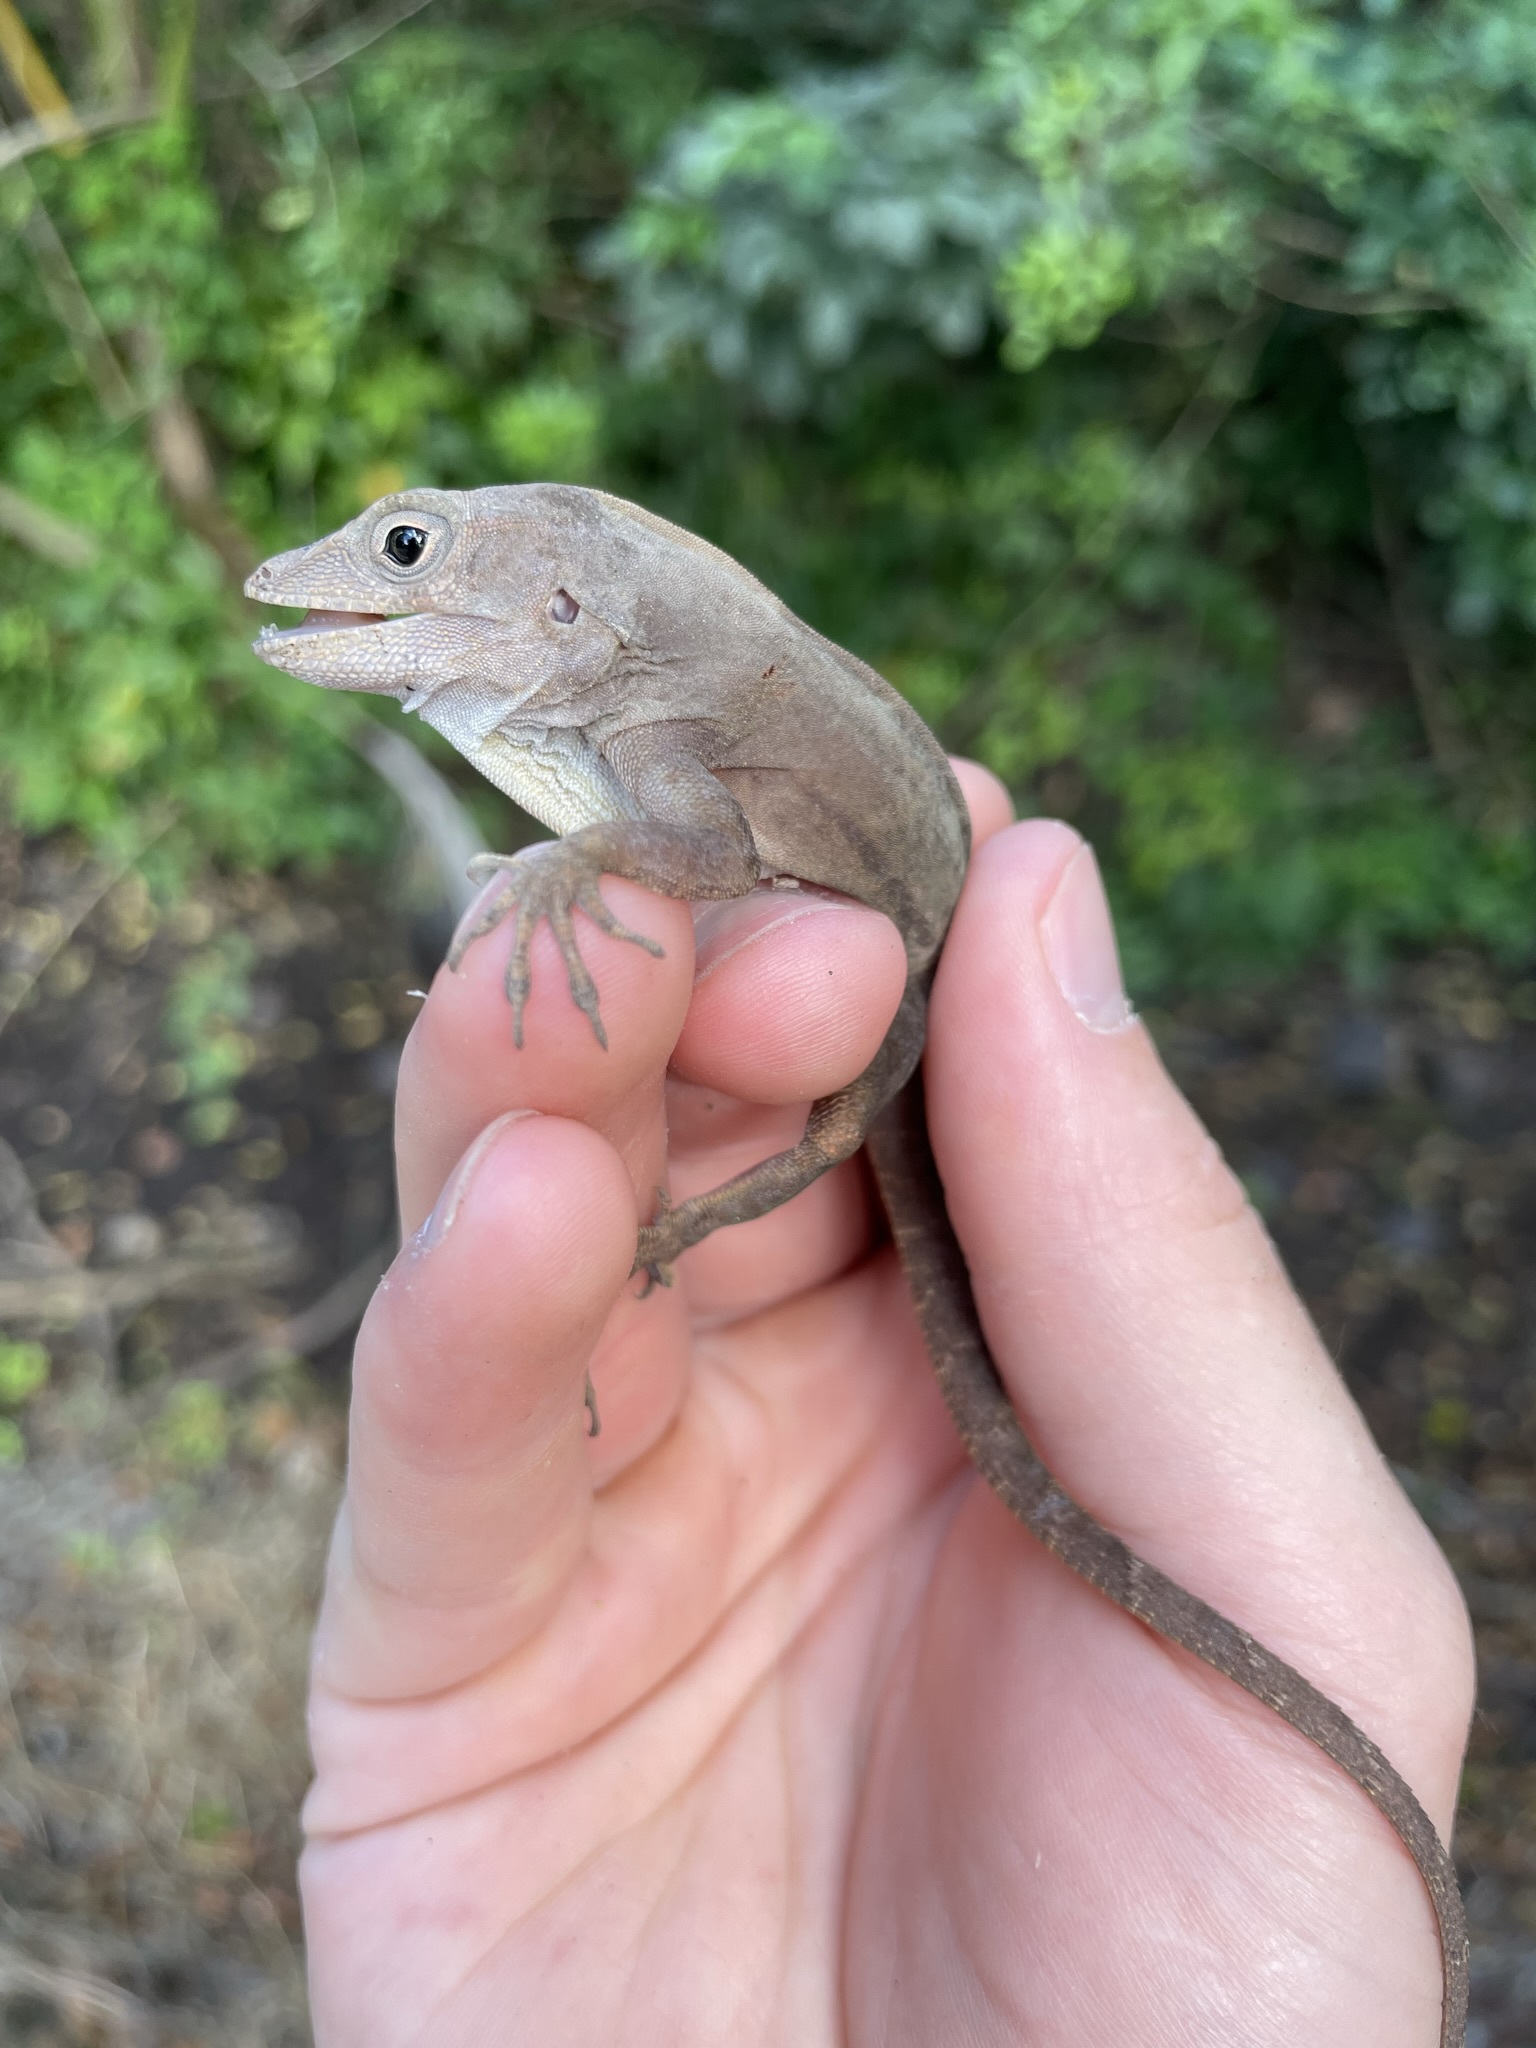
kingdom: Animalia
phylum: Chordata
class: Squamata
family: Dactyloidae
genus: Anolis
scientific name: Anolis cybotes
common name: Large-headed anole
